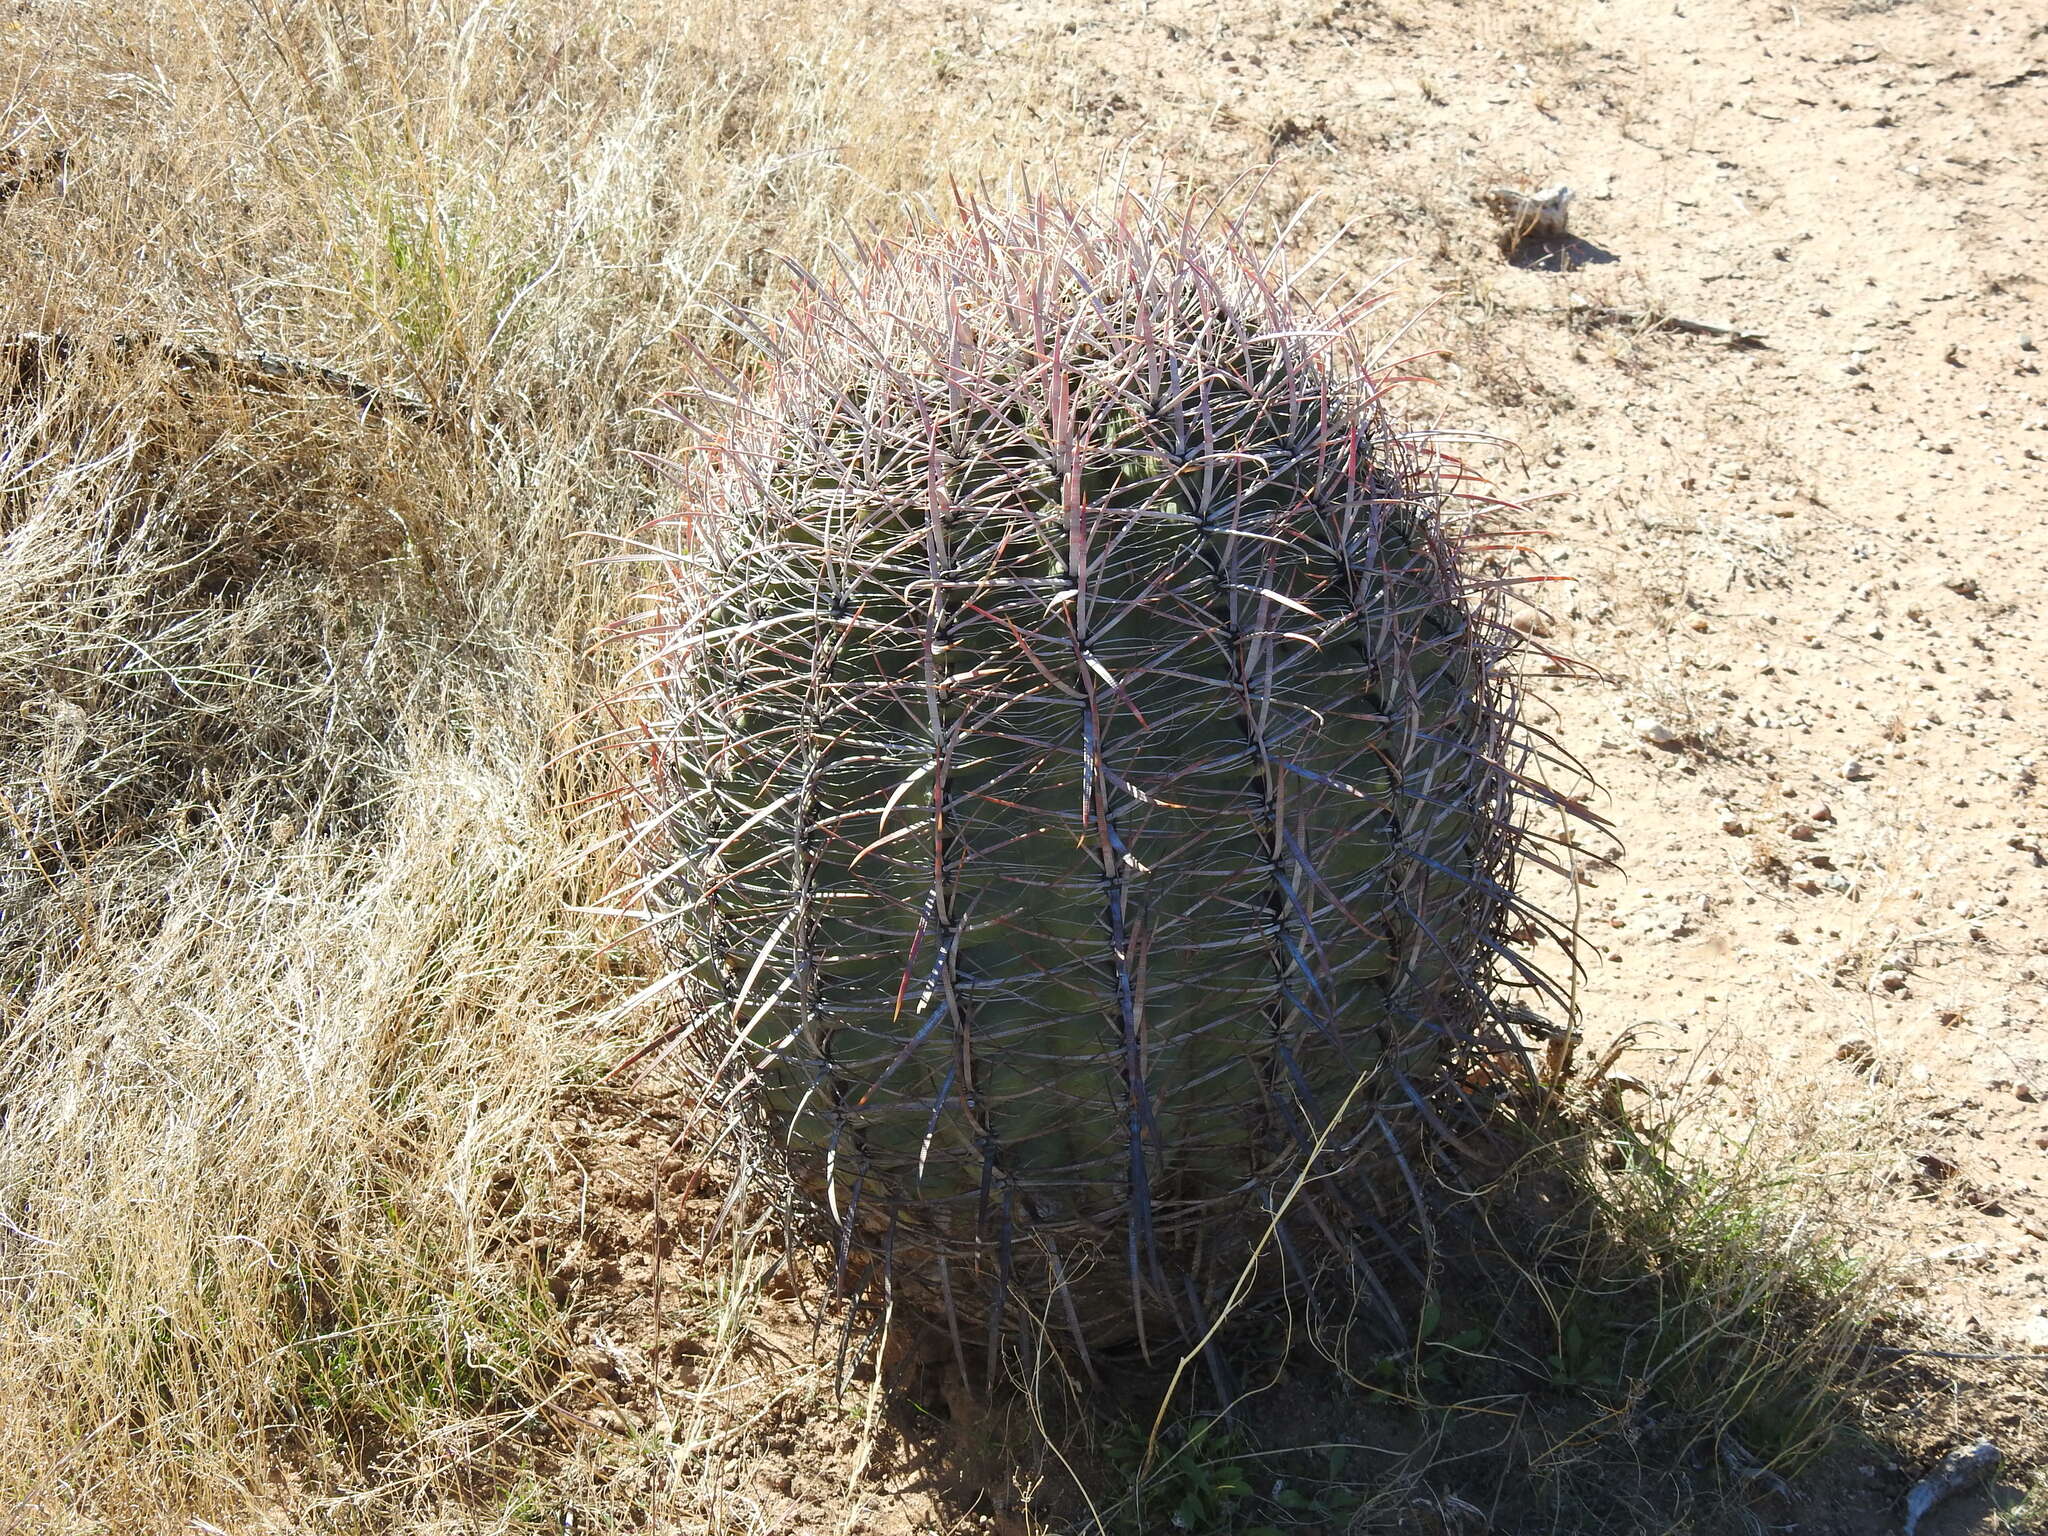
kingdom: Plantae
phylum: Tracheophyta
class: Magnoliopsida
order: Caryophyllales
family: Cactaceae
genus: Ferocactus
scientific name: Ferocactus cylindraceus
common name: California barrel cactus
